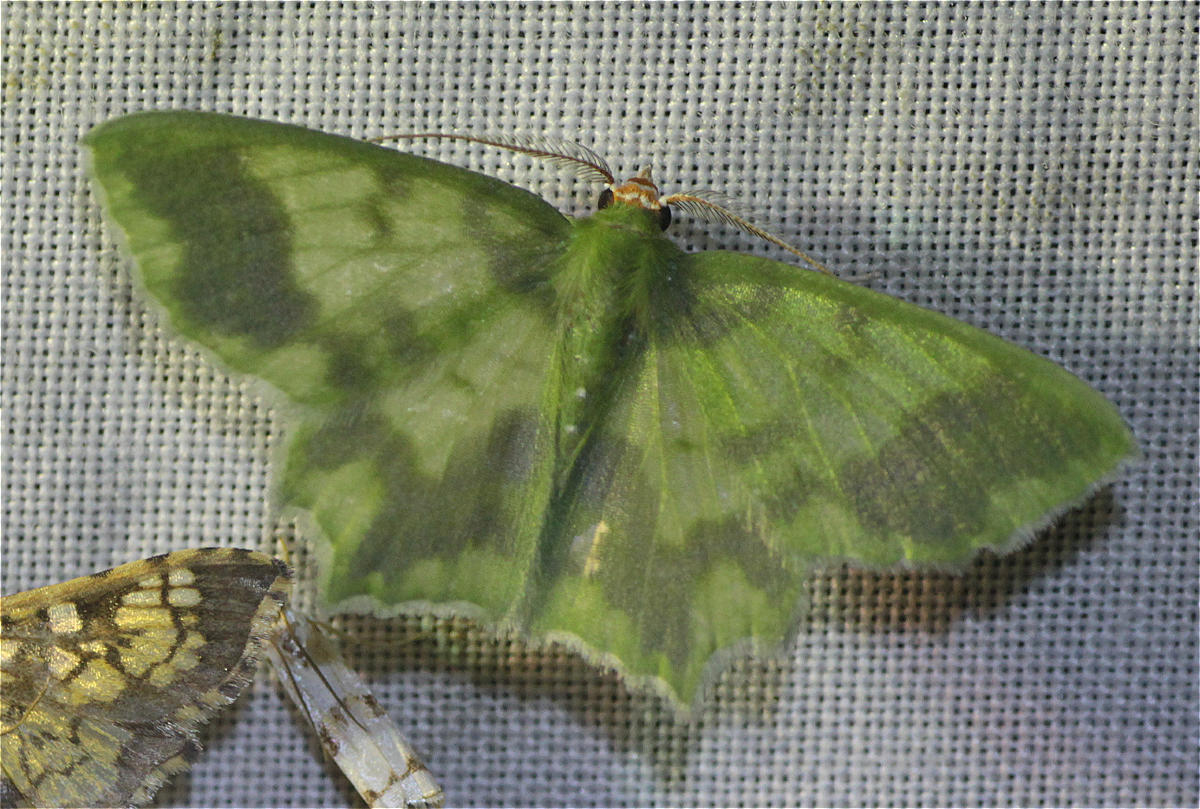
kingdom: Animalia
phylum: Arthropoda
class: Insecta
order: Lepidoptera
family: Geometridae
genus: Cathydata
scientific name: Cathydata batina
